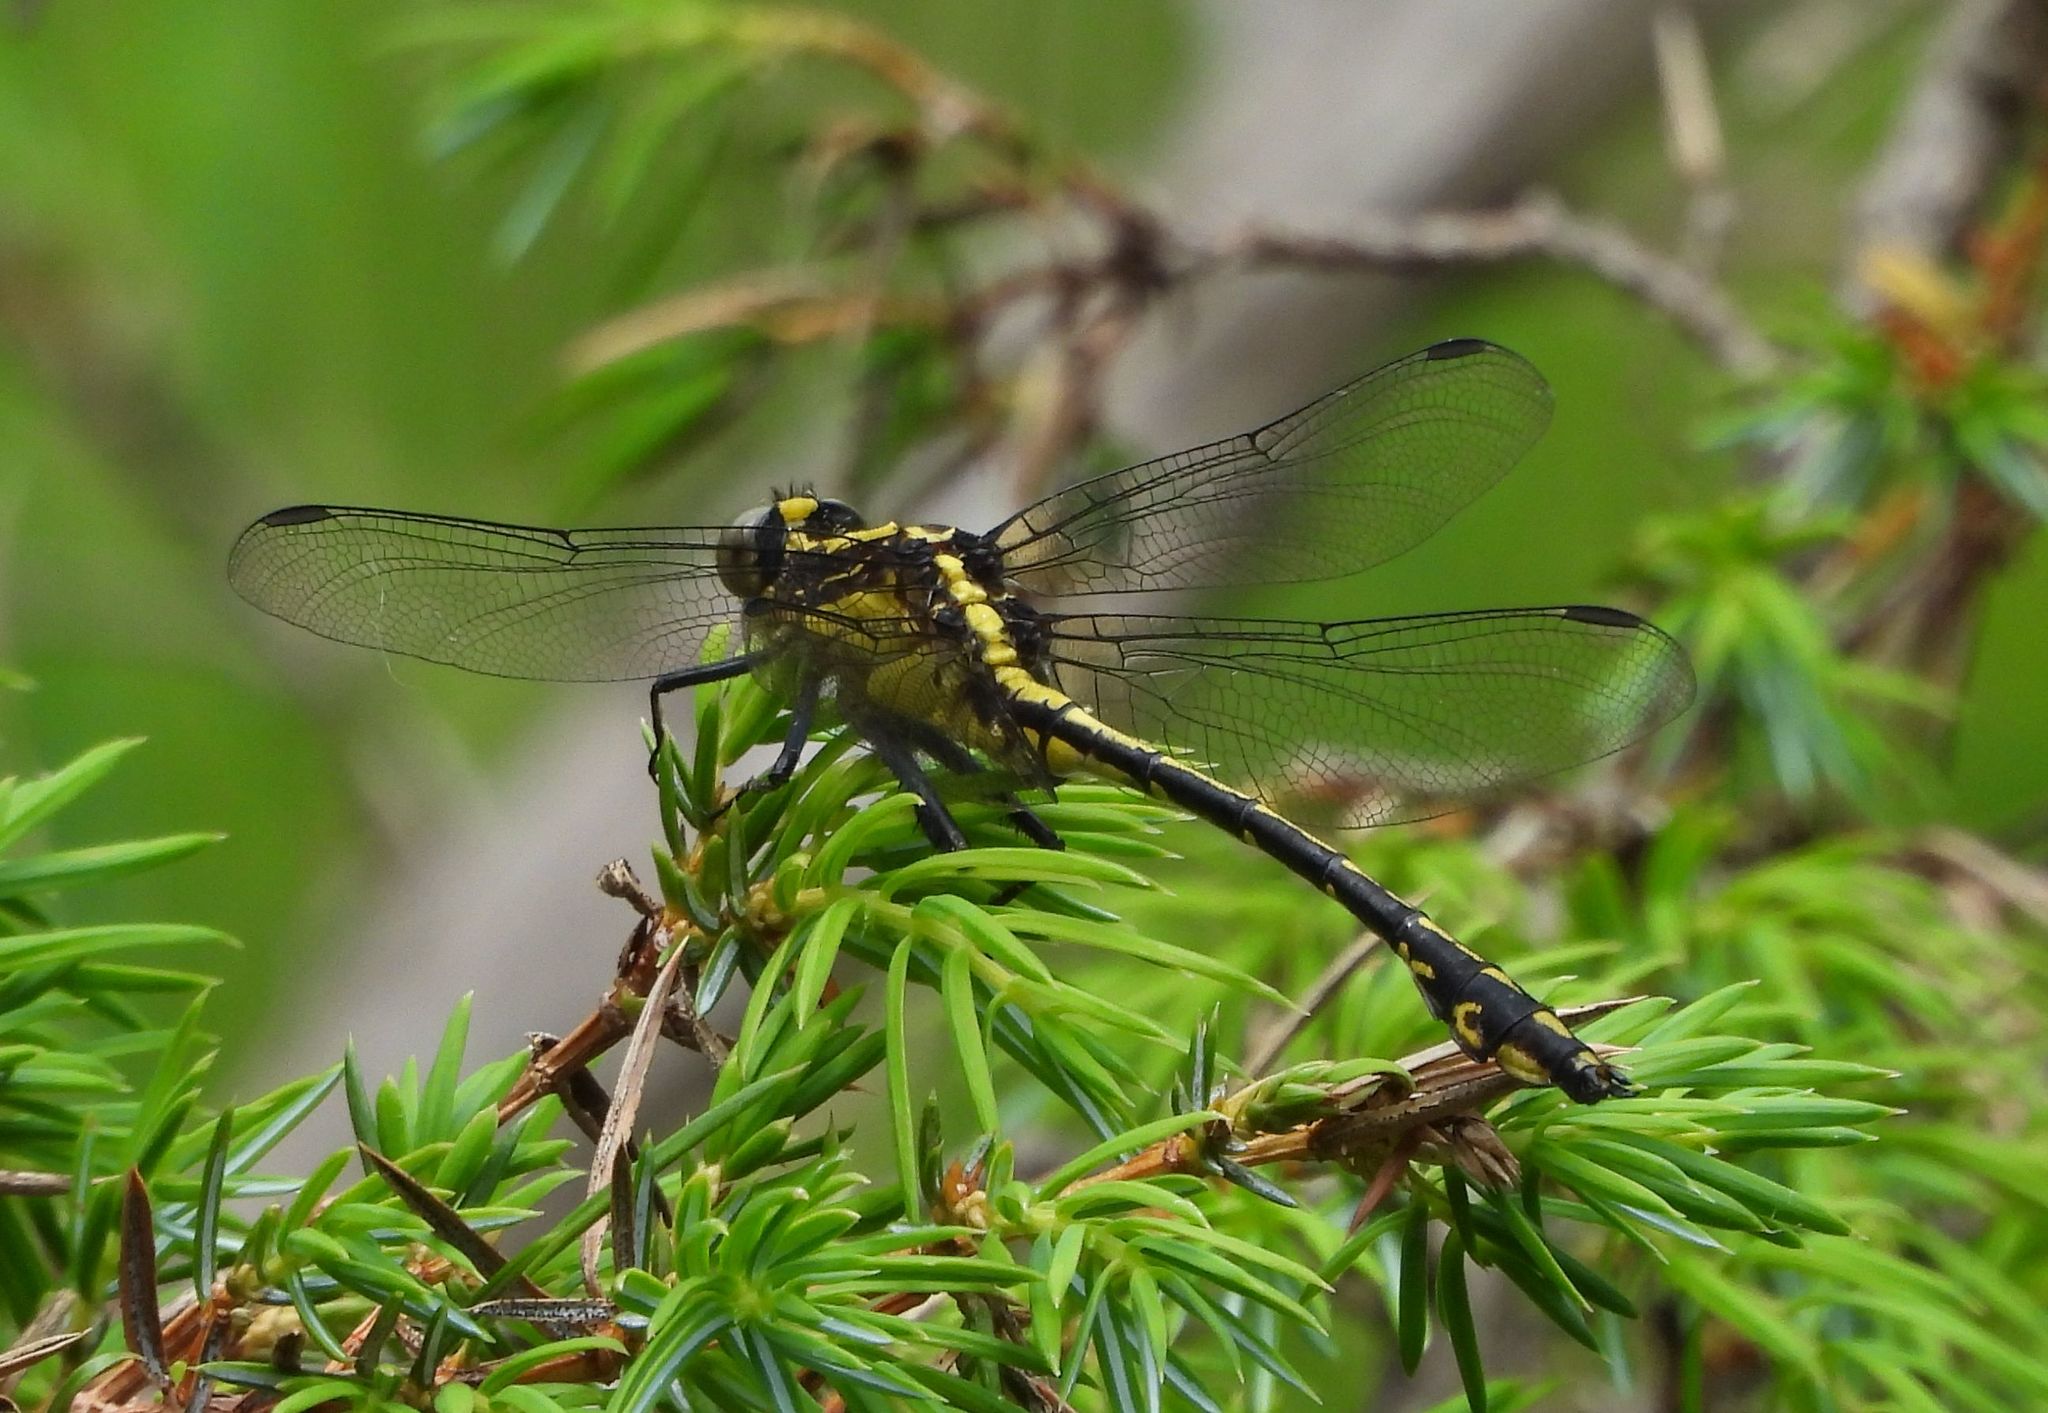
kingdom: Animalia
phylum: Arthropoda
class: Insecta
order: Odonata
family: Gomphidae
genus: Dromogomphus
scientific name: Dromogomphus spinosus
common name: Black-shouldered spinyleg
